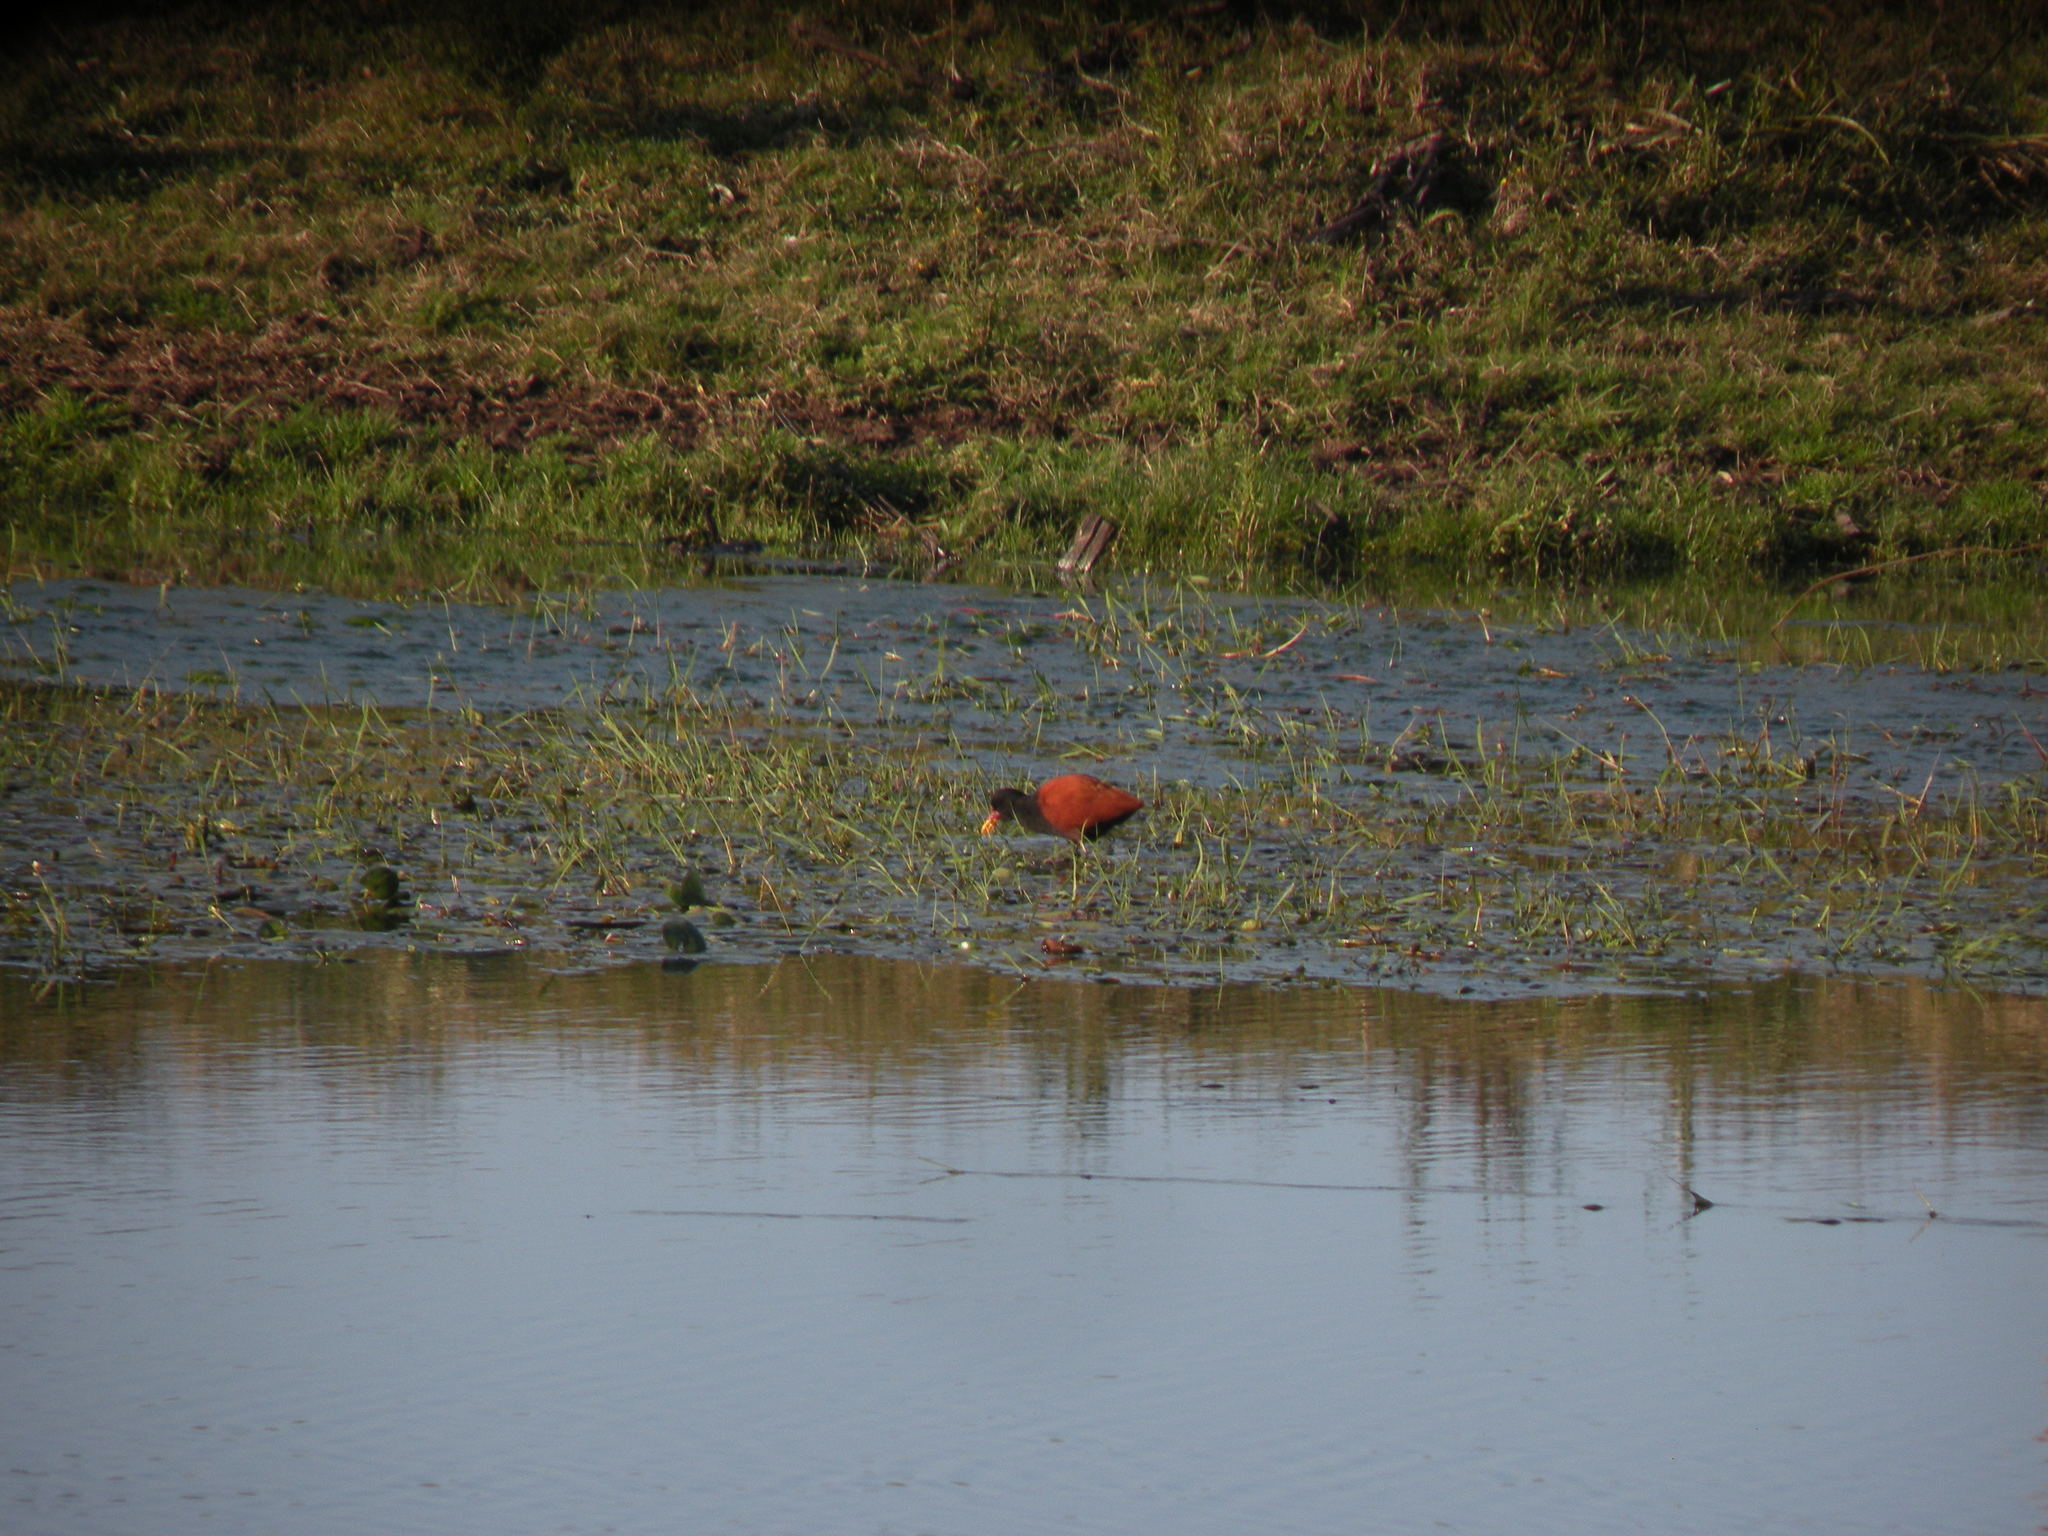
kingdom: Animalia
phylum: Chordata
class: Aves
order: Charadriiformes
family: Jacanidae
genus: Jacana
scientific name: Jacana jacana
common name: Wattled jacana
